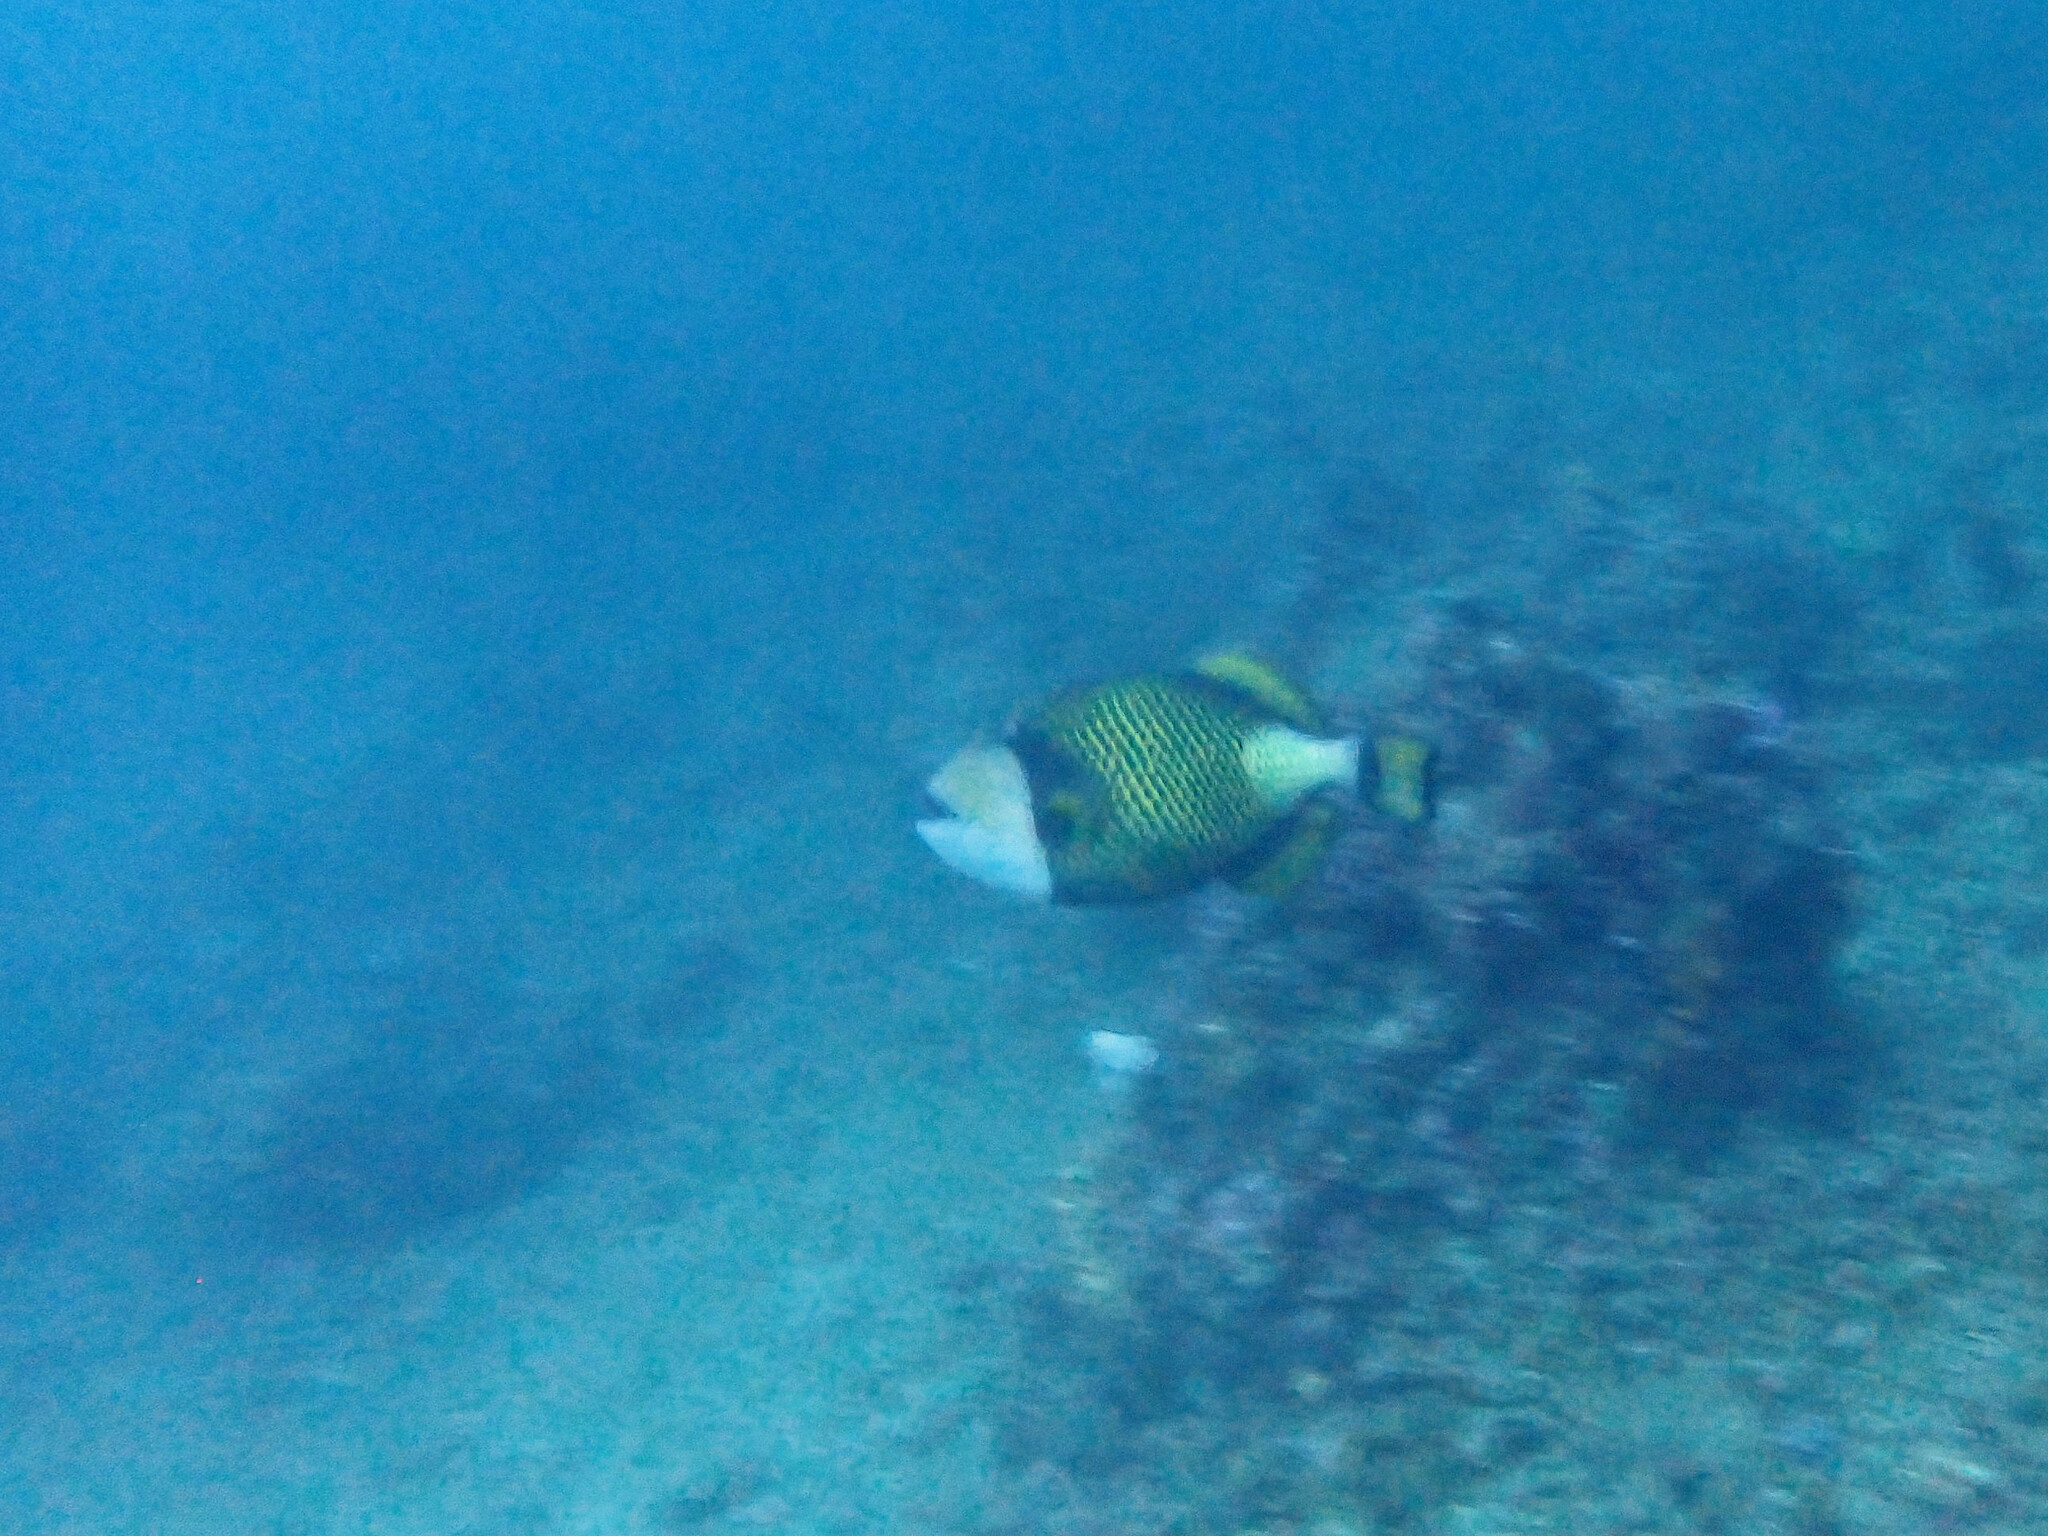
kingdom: Animalia
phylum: Chordata
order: Tetraodontiformes
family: Balistidae
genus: Balistoides
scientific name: Balistoides viridescens
